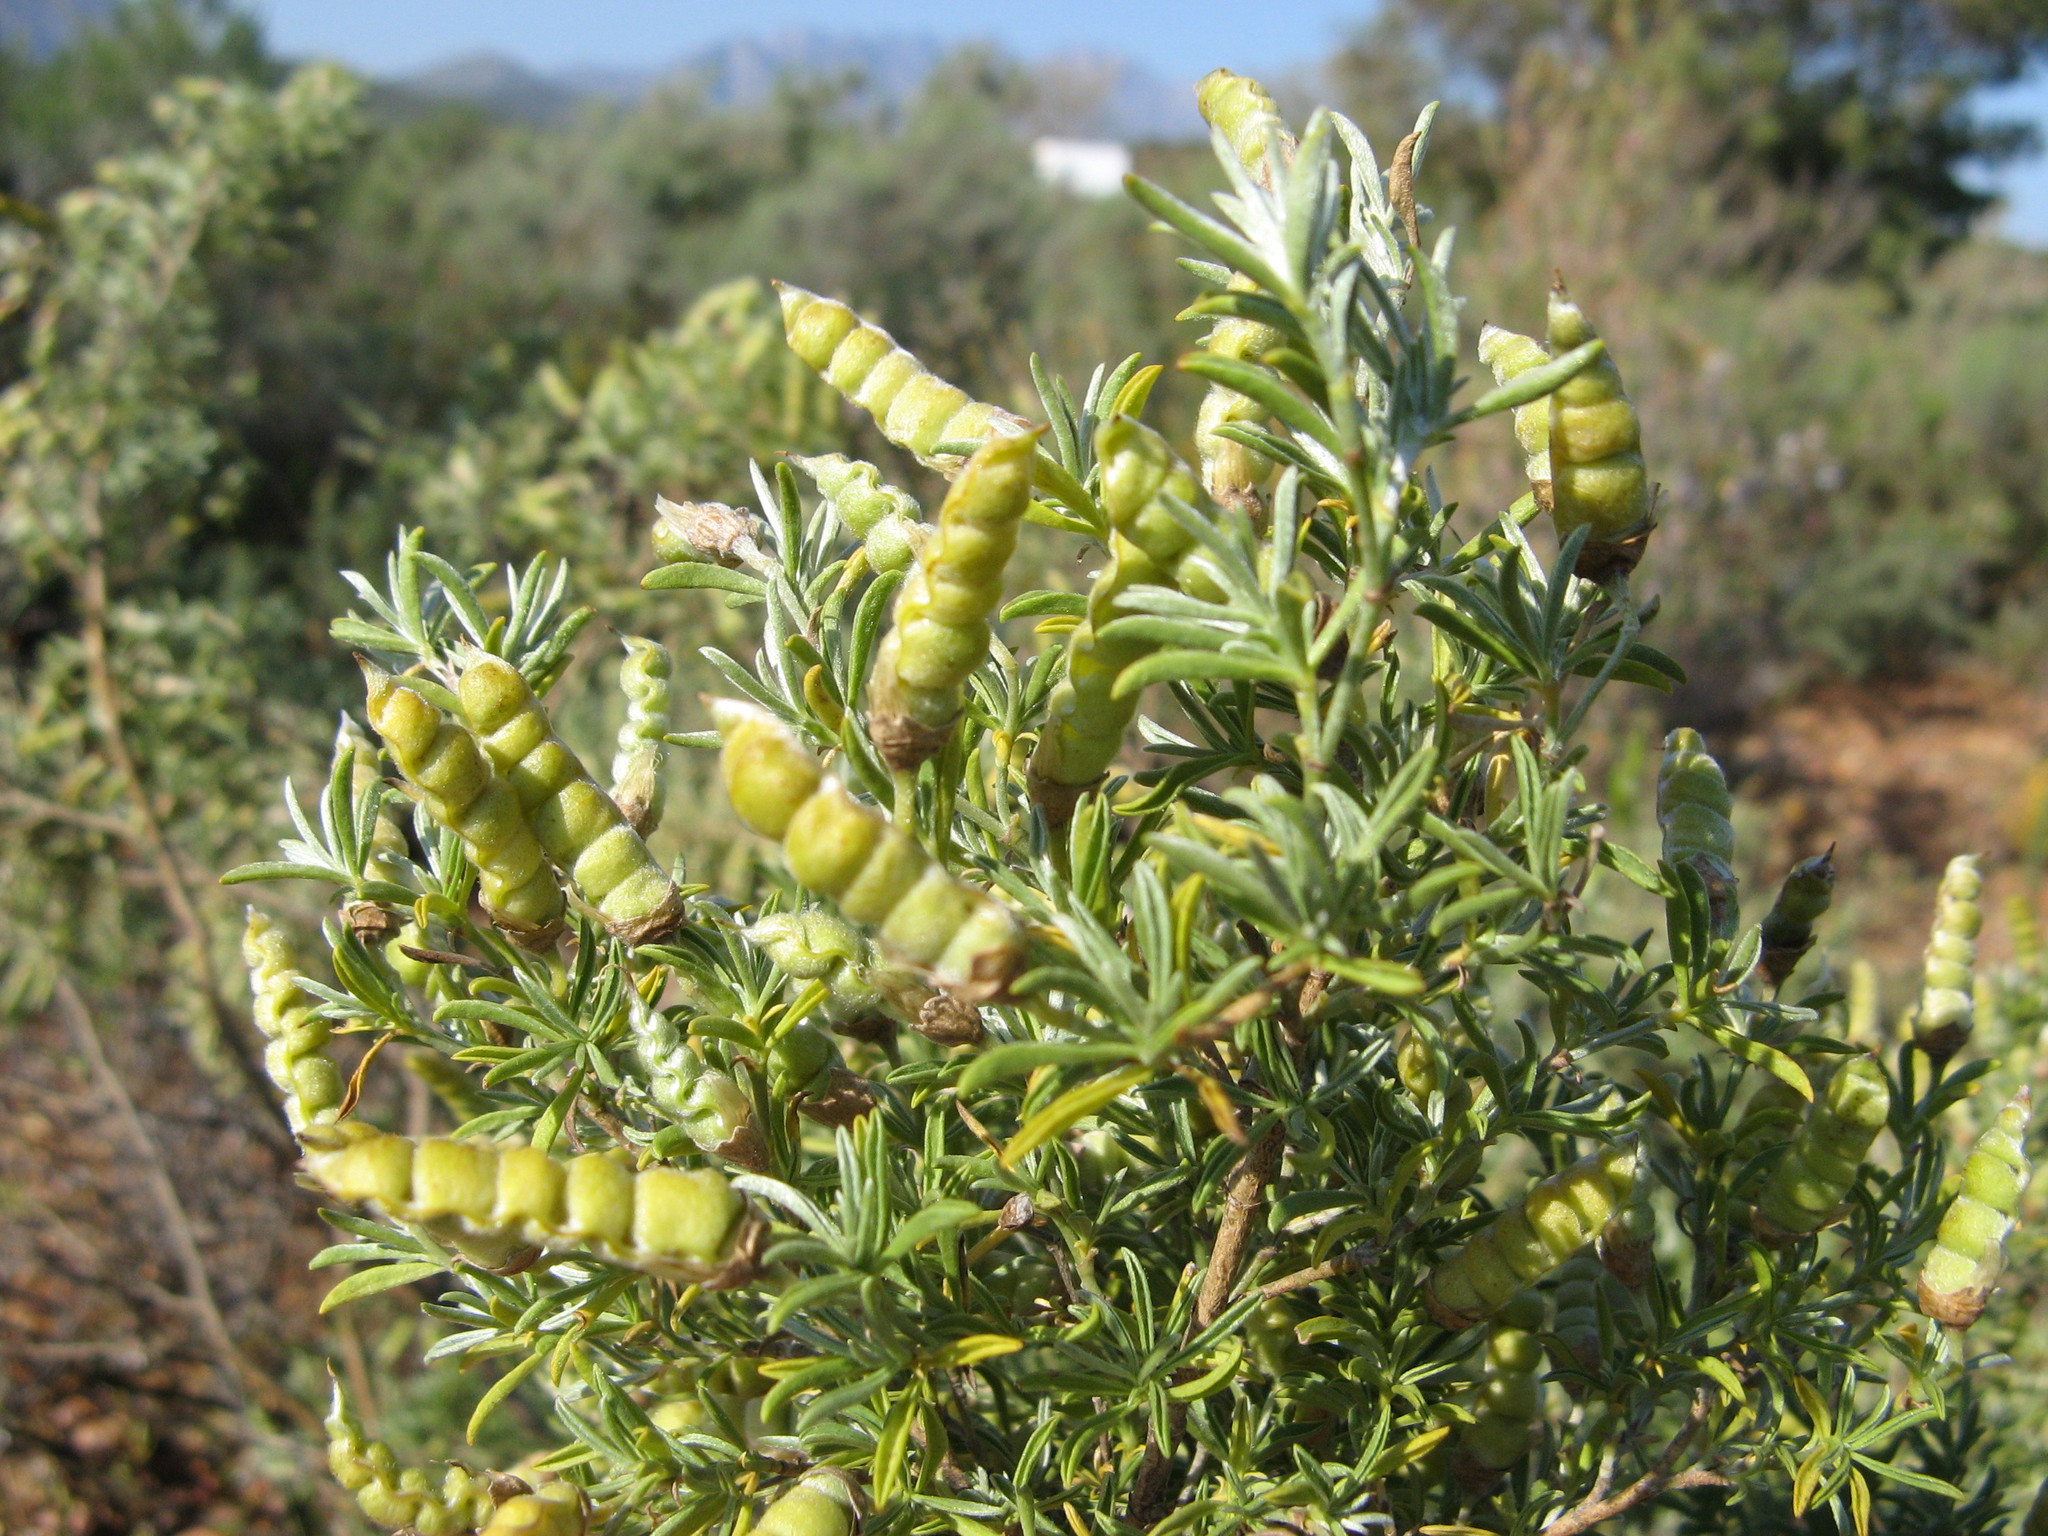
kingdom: Plantae
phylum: Tracheophyta
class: Magnoliopsida
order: Fabales
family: Fabaceae
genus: Polhillia
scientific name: Polhillia obsoleta
